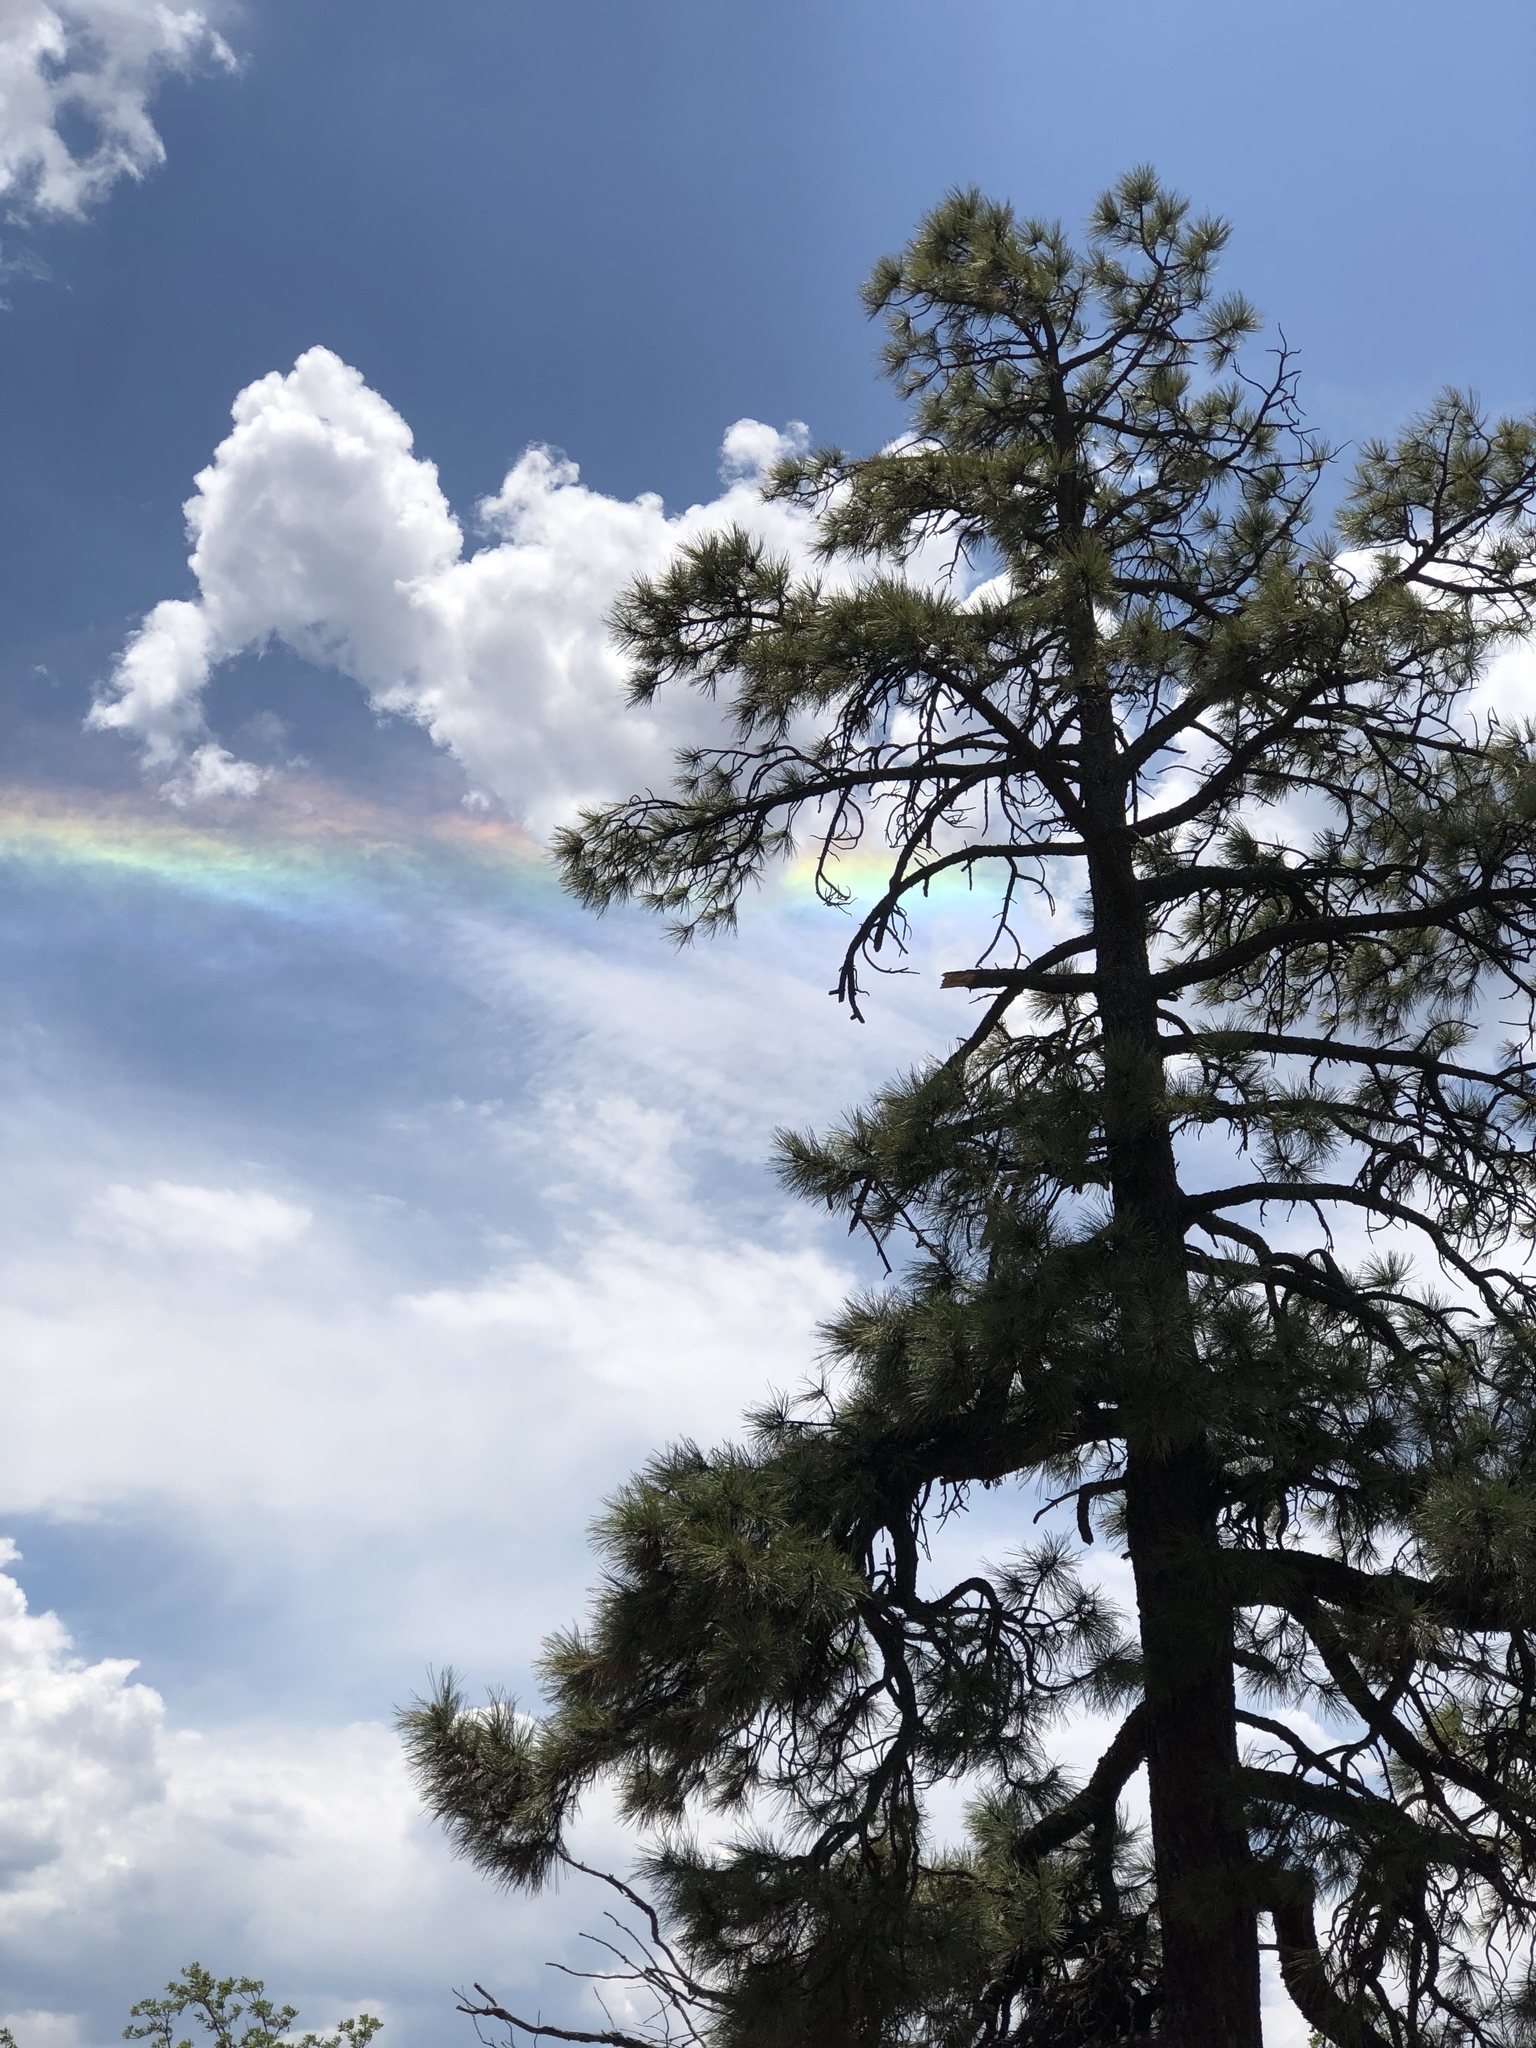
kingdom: Plantae
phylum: Tracheophyta
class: Pinopsida
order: Pinales
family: Pinaceae
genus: Pinus
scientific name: Pinus ponderosa
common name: Western yellow-pine
